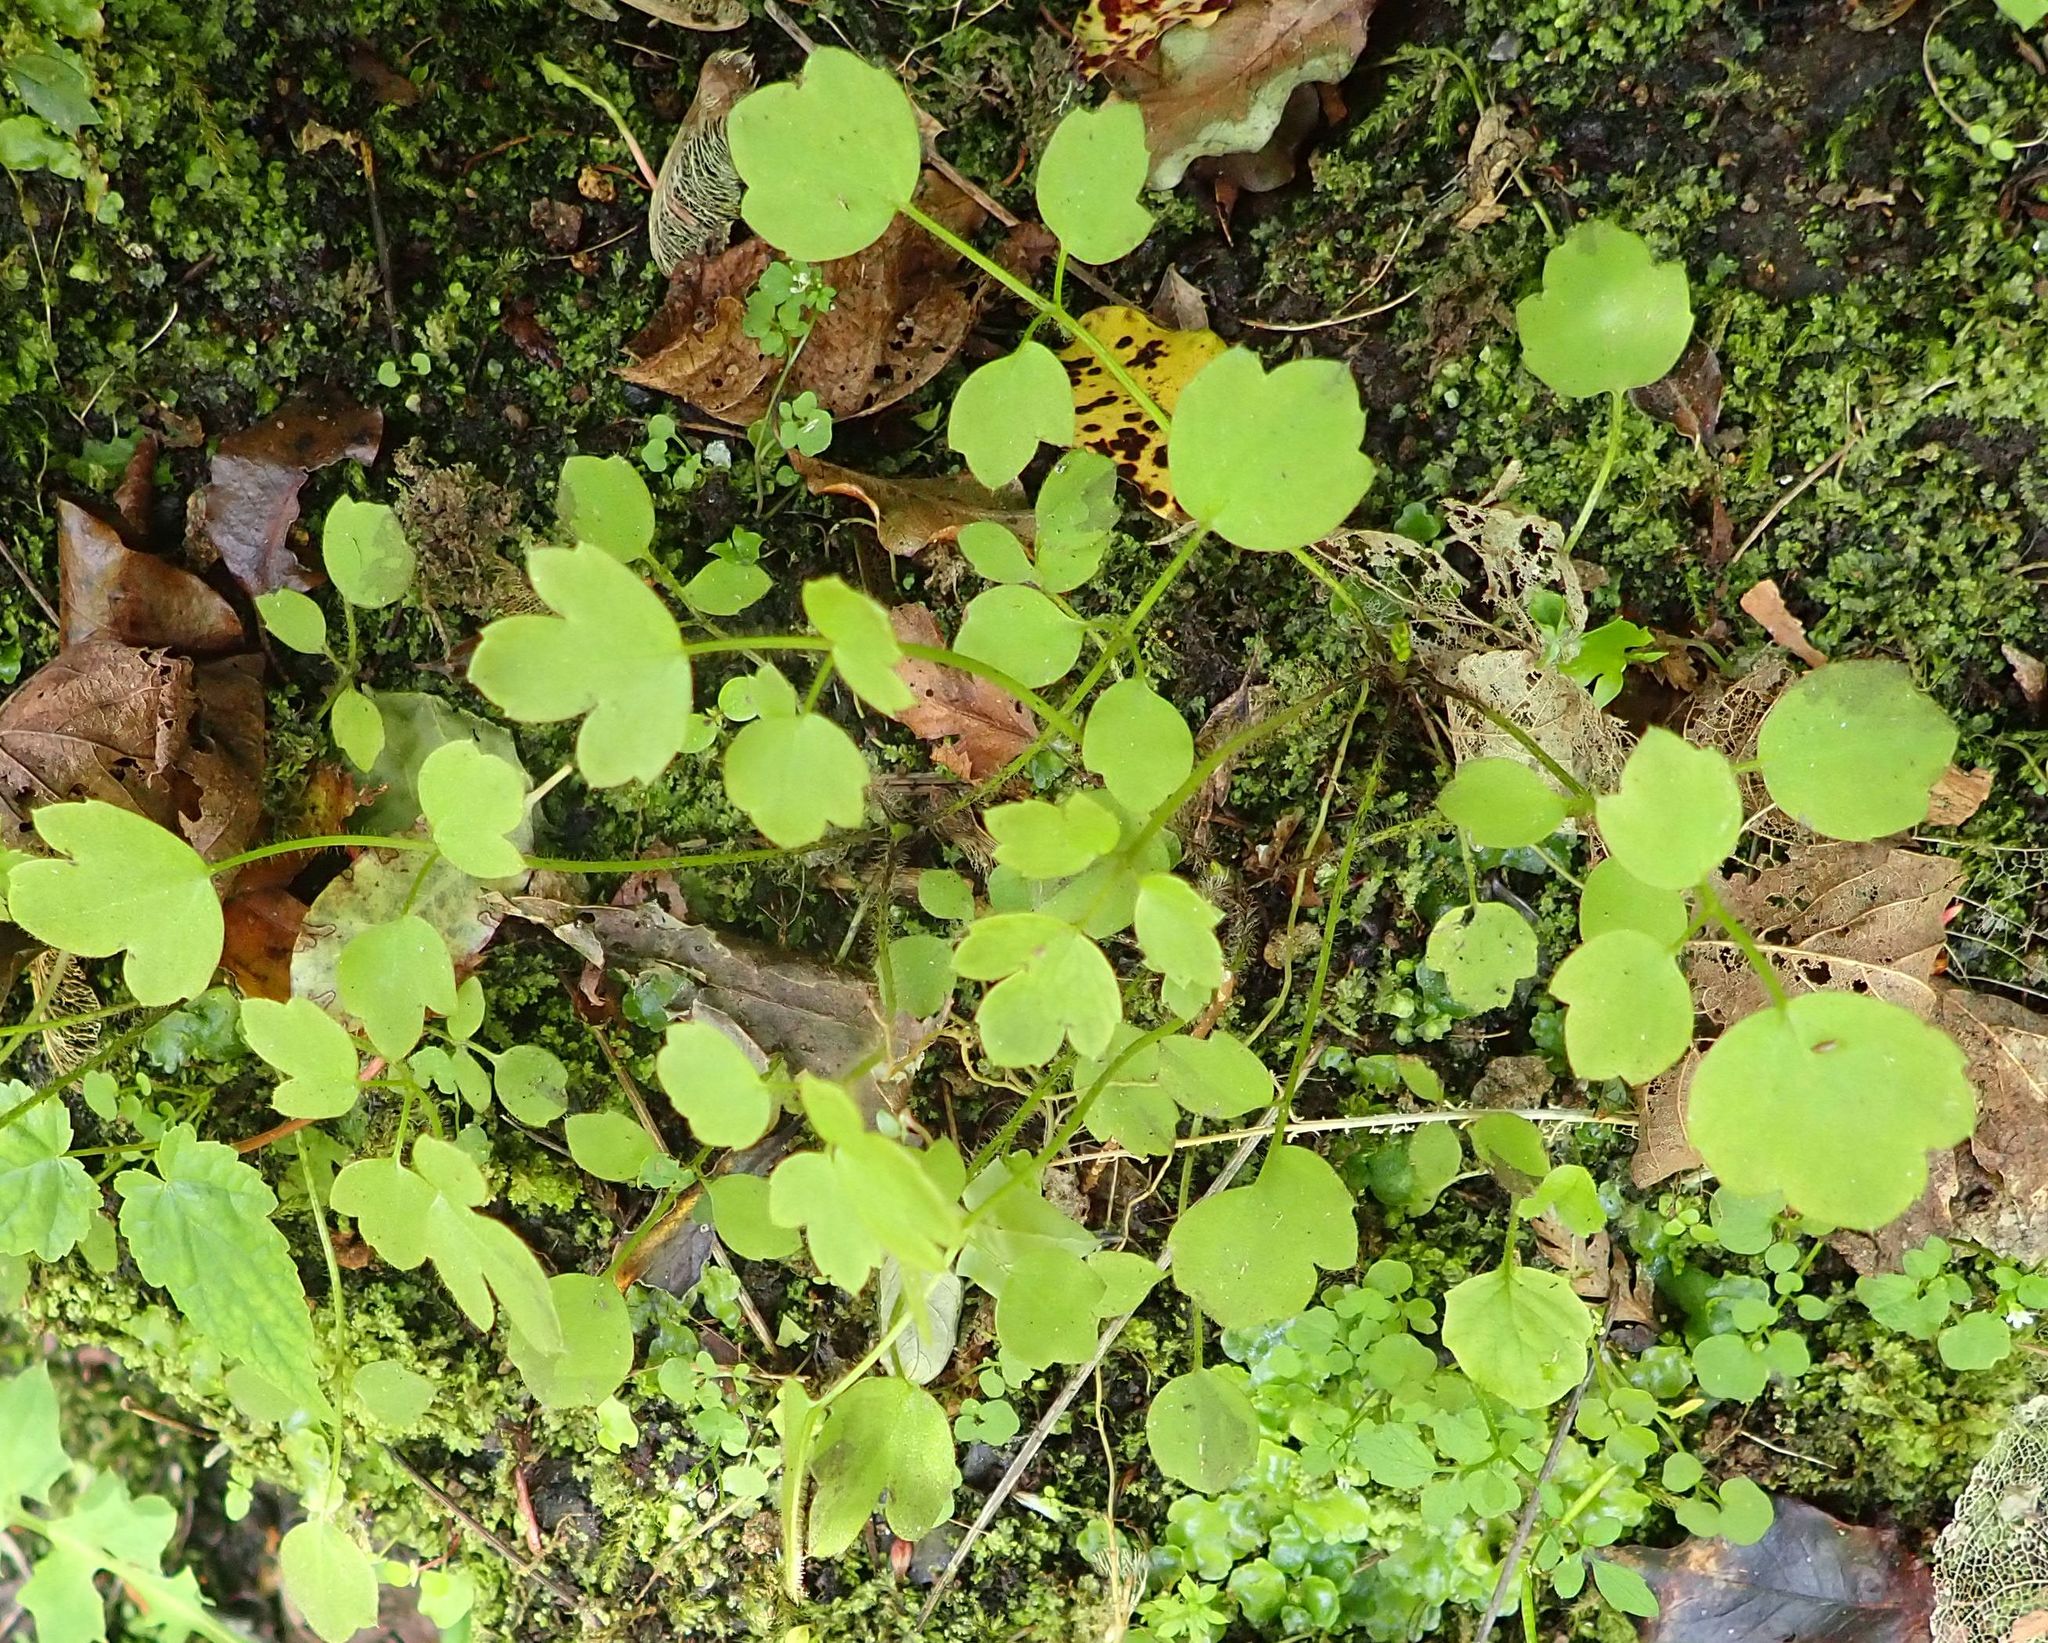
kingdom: Plantae
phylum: Tracheophyta
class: Magnoliopsida
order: Ranunculales
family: Ranunculaceae
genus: Ranunculus
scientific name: Ranunculus reflexus
